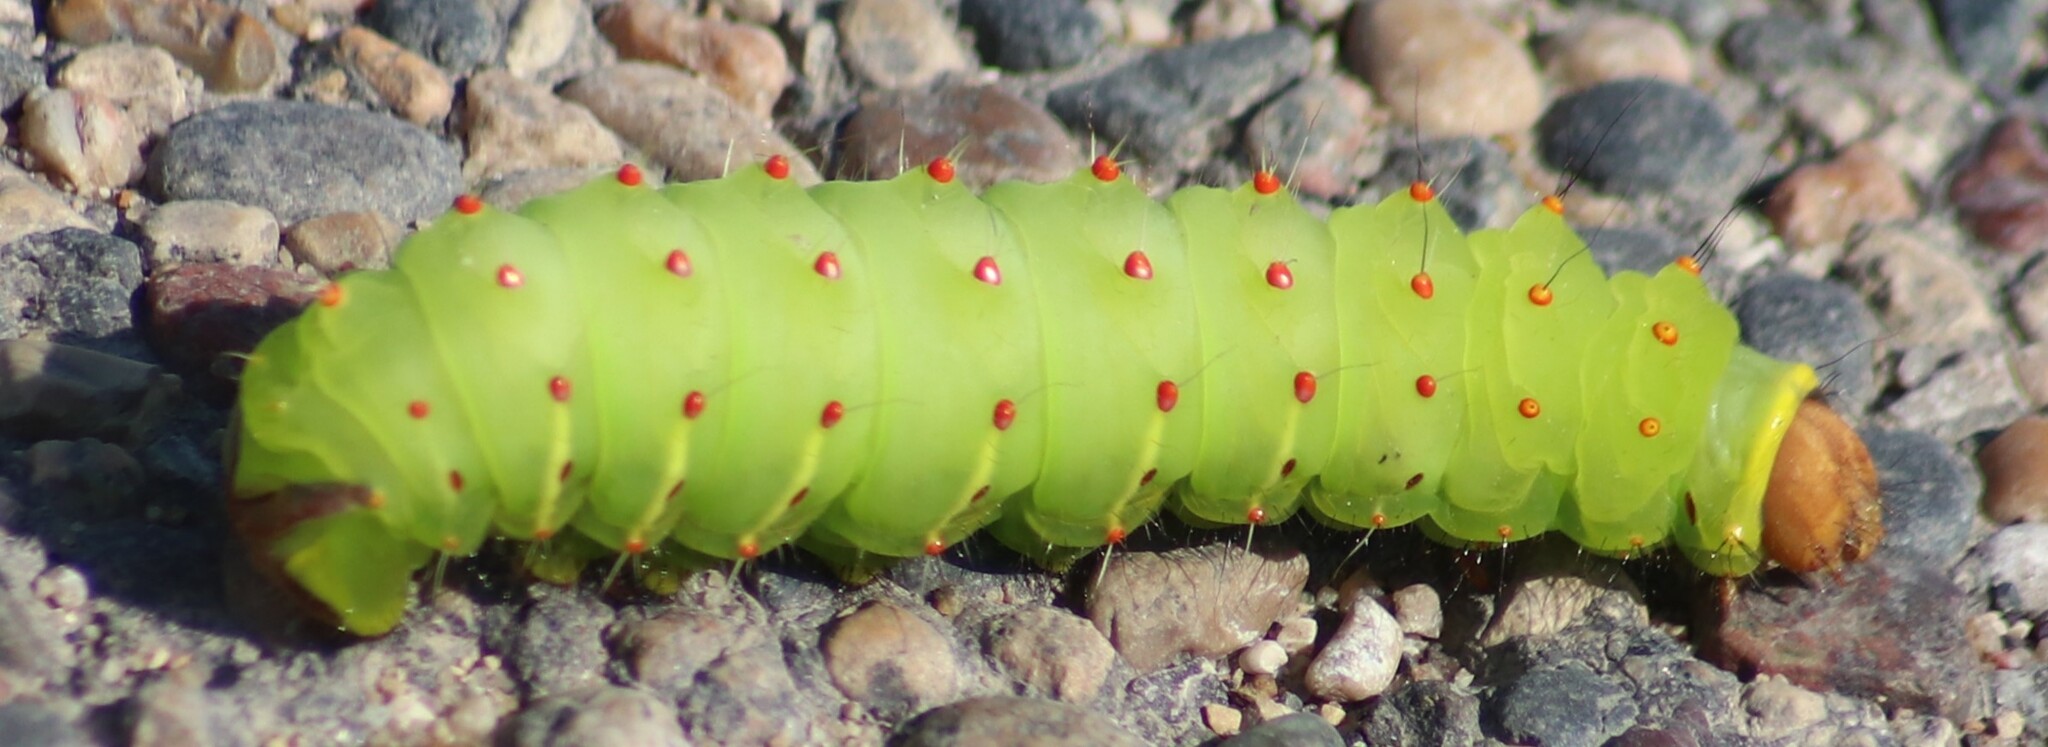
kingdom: Animalia
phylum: Arthropoda
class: Insecta
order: Lepidoptera
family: Saturniidae
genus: Antheraea
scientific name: Antheraea polyphemus
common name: Polyphemus moth
